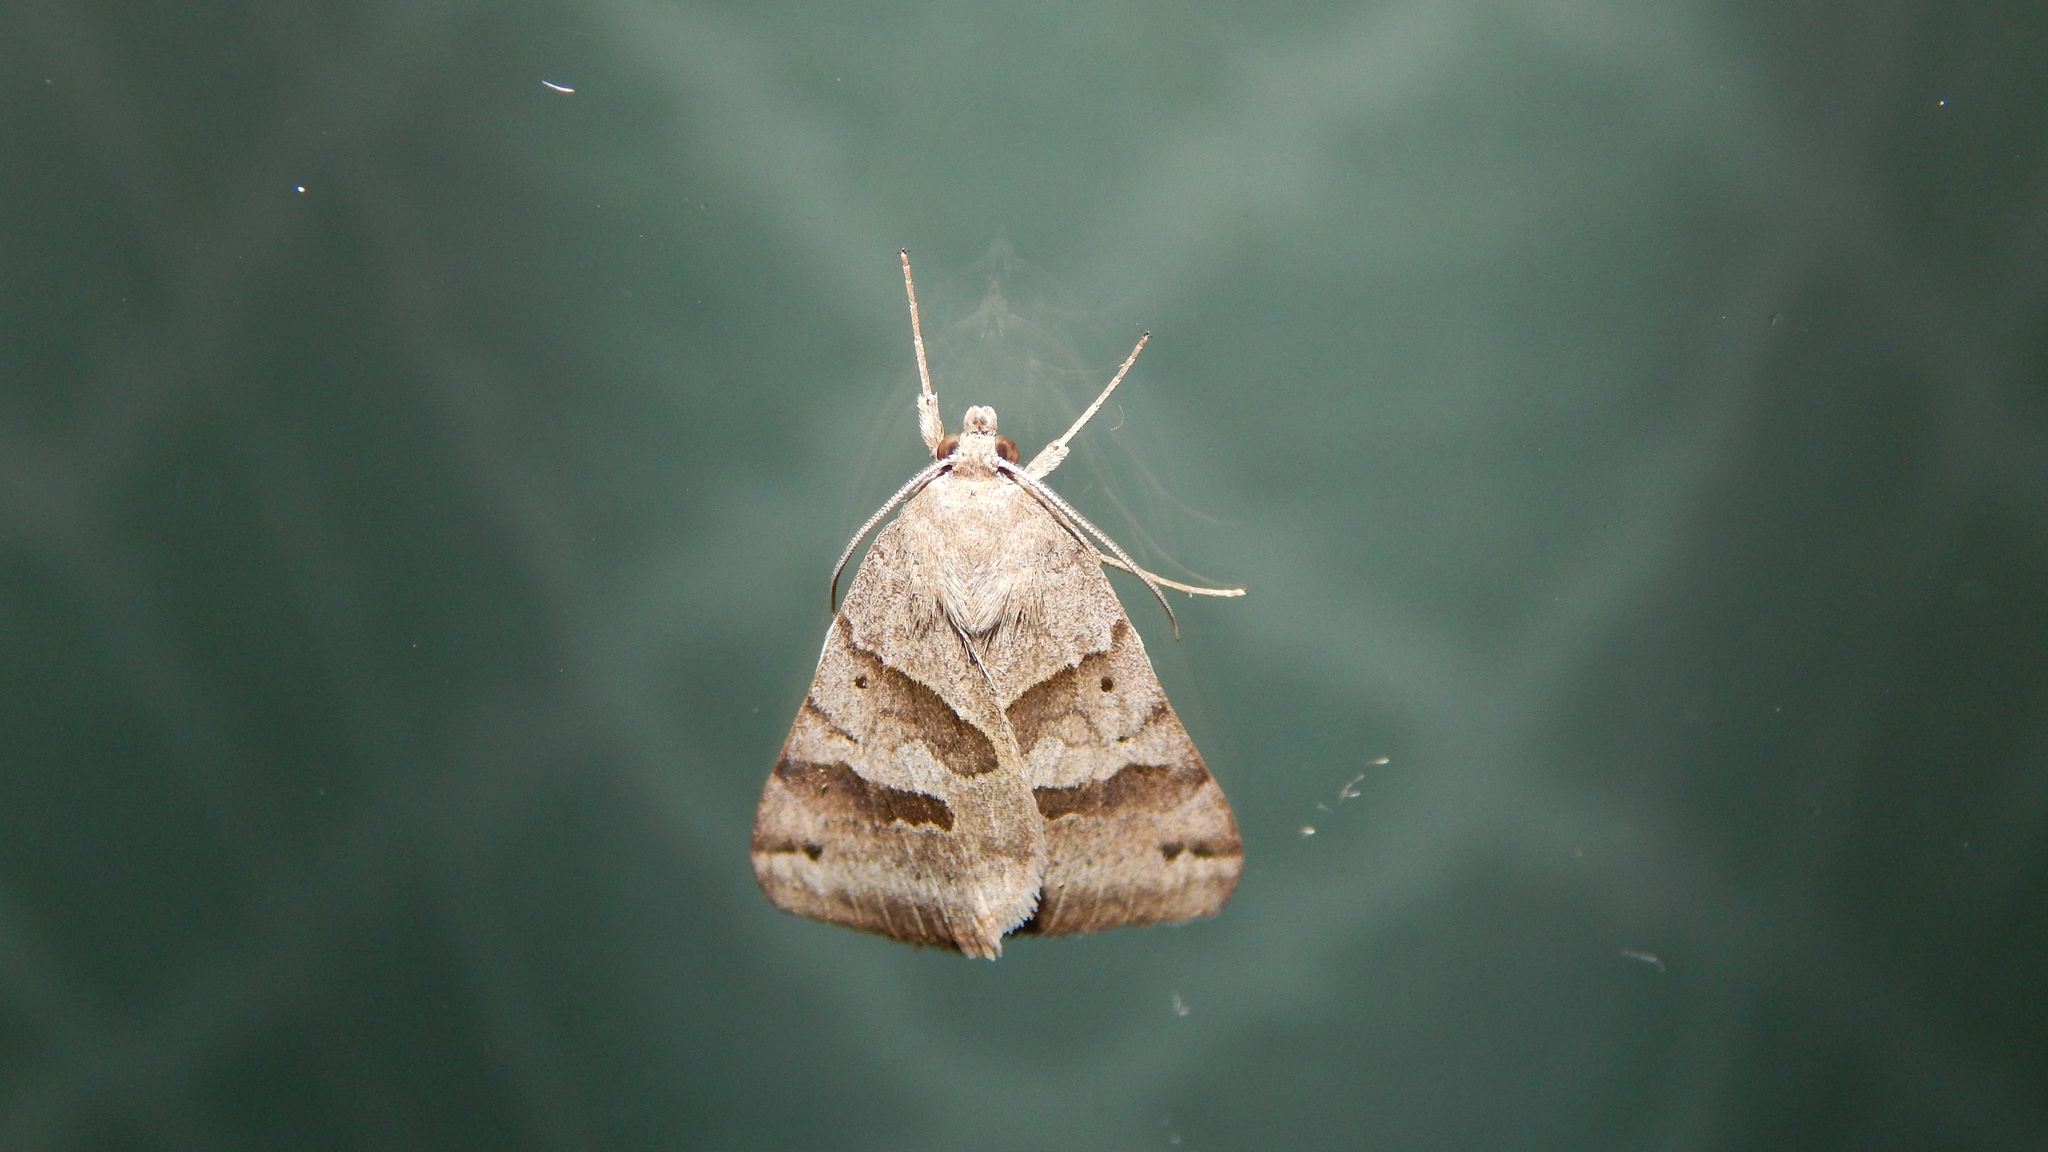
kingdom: Animalia
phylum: Arthropoda
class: Insecta
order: Lepidoptera
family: Erebidae
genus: Caenurgina
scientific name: Caenurgina erechtea
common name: Forage looper moth
